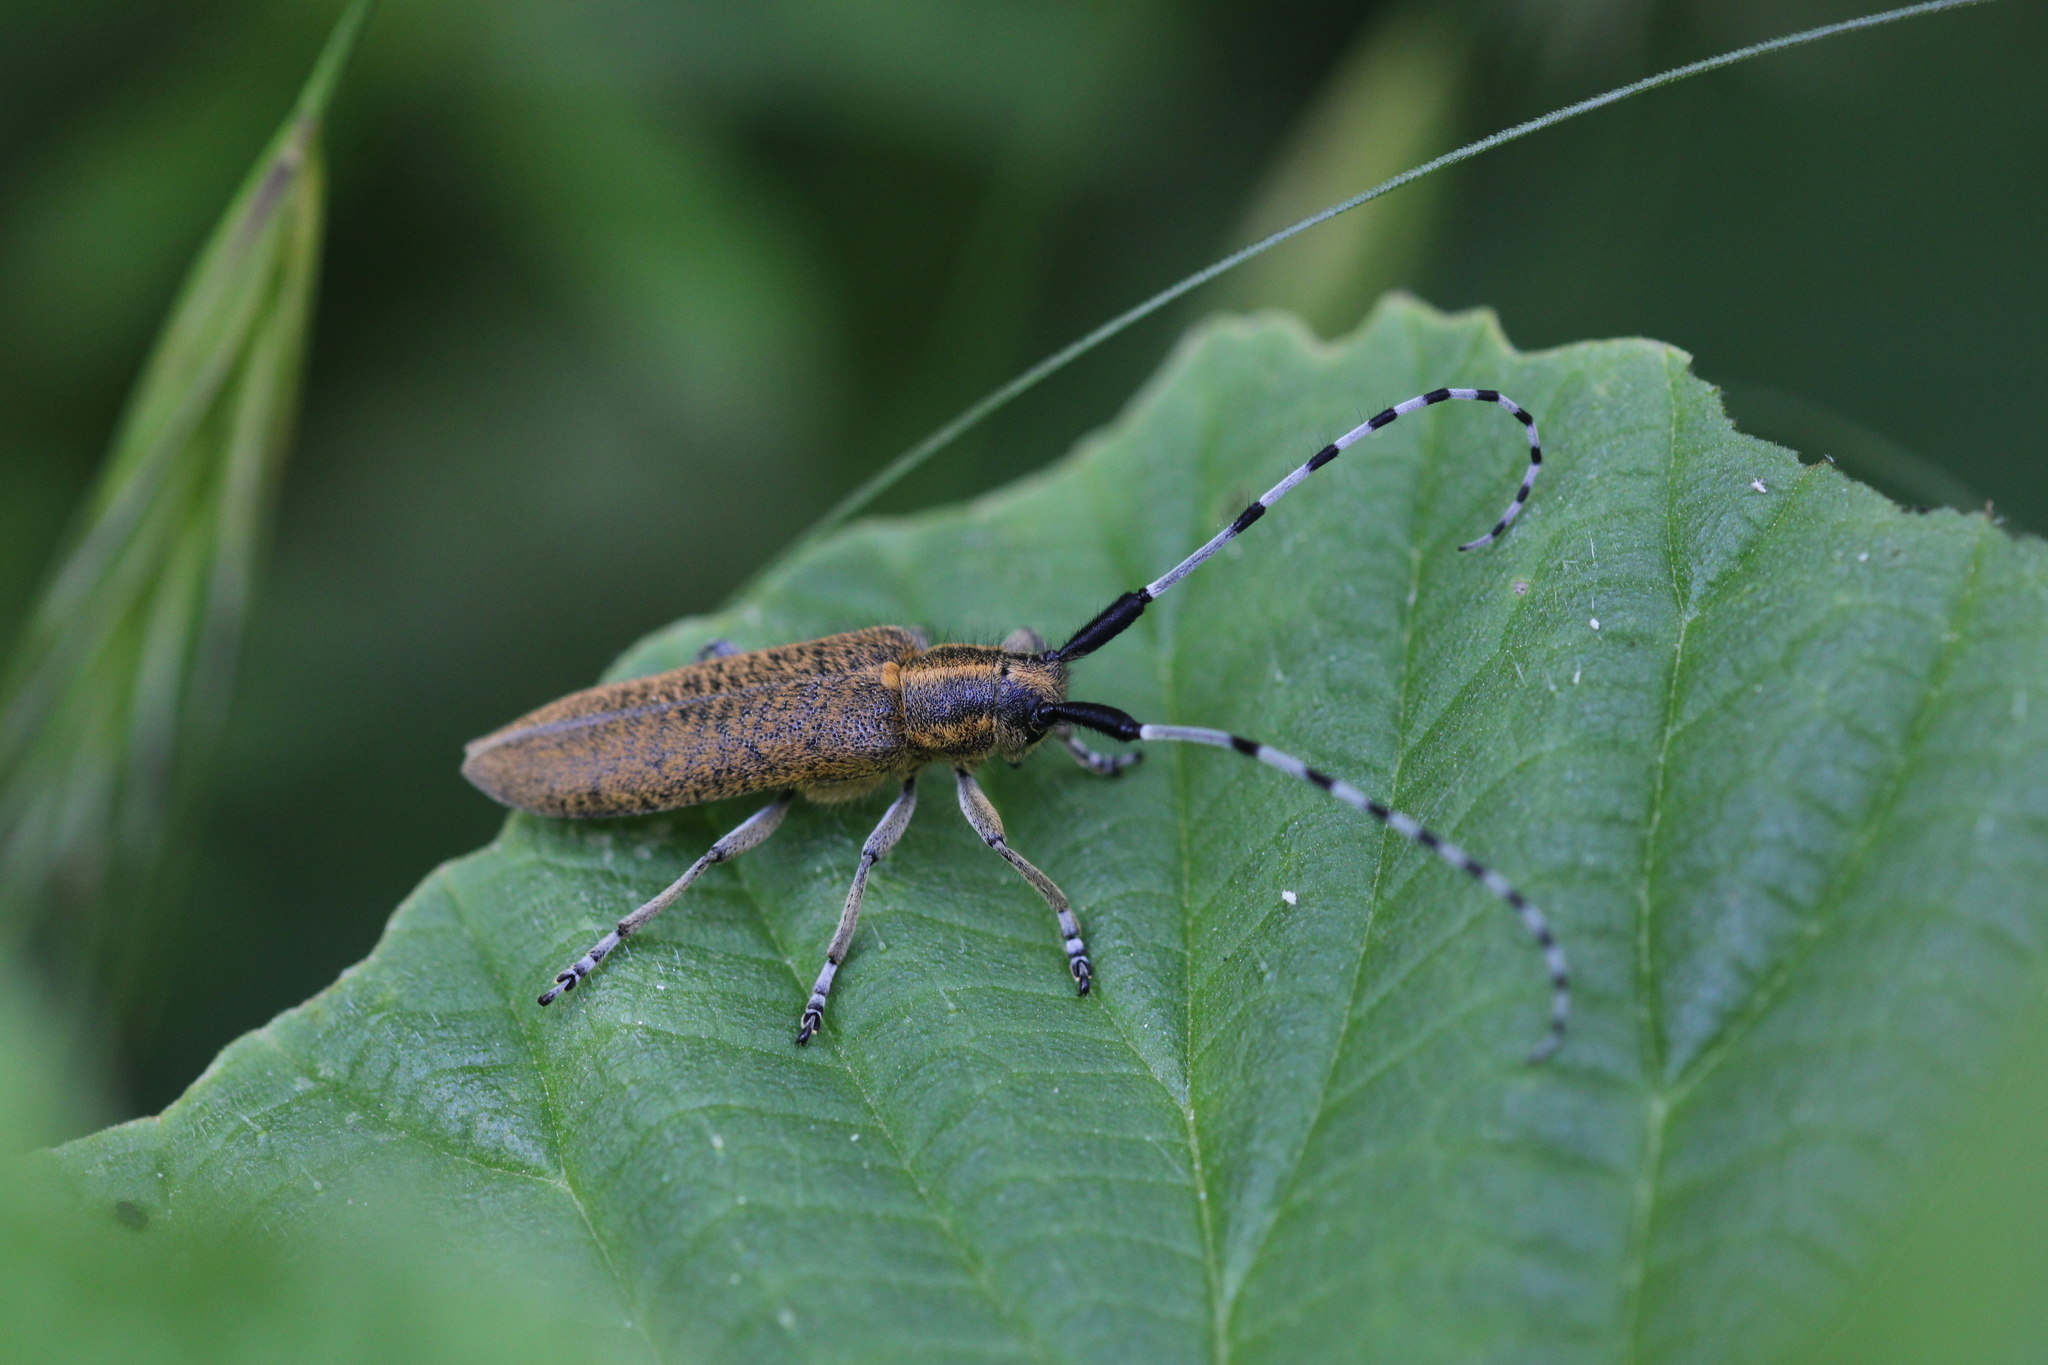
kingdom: Animalia
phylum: Arthropoda
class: Insecta
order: Coleoptera
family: Cerambycidae
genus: Agapanthia
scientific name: Agapanthia villosoviridescens
